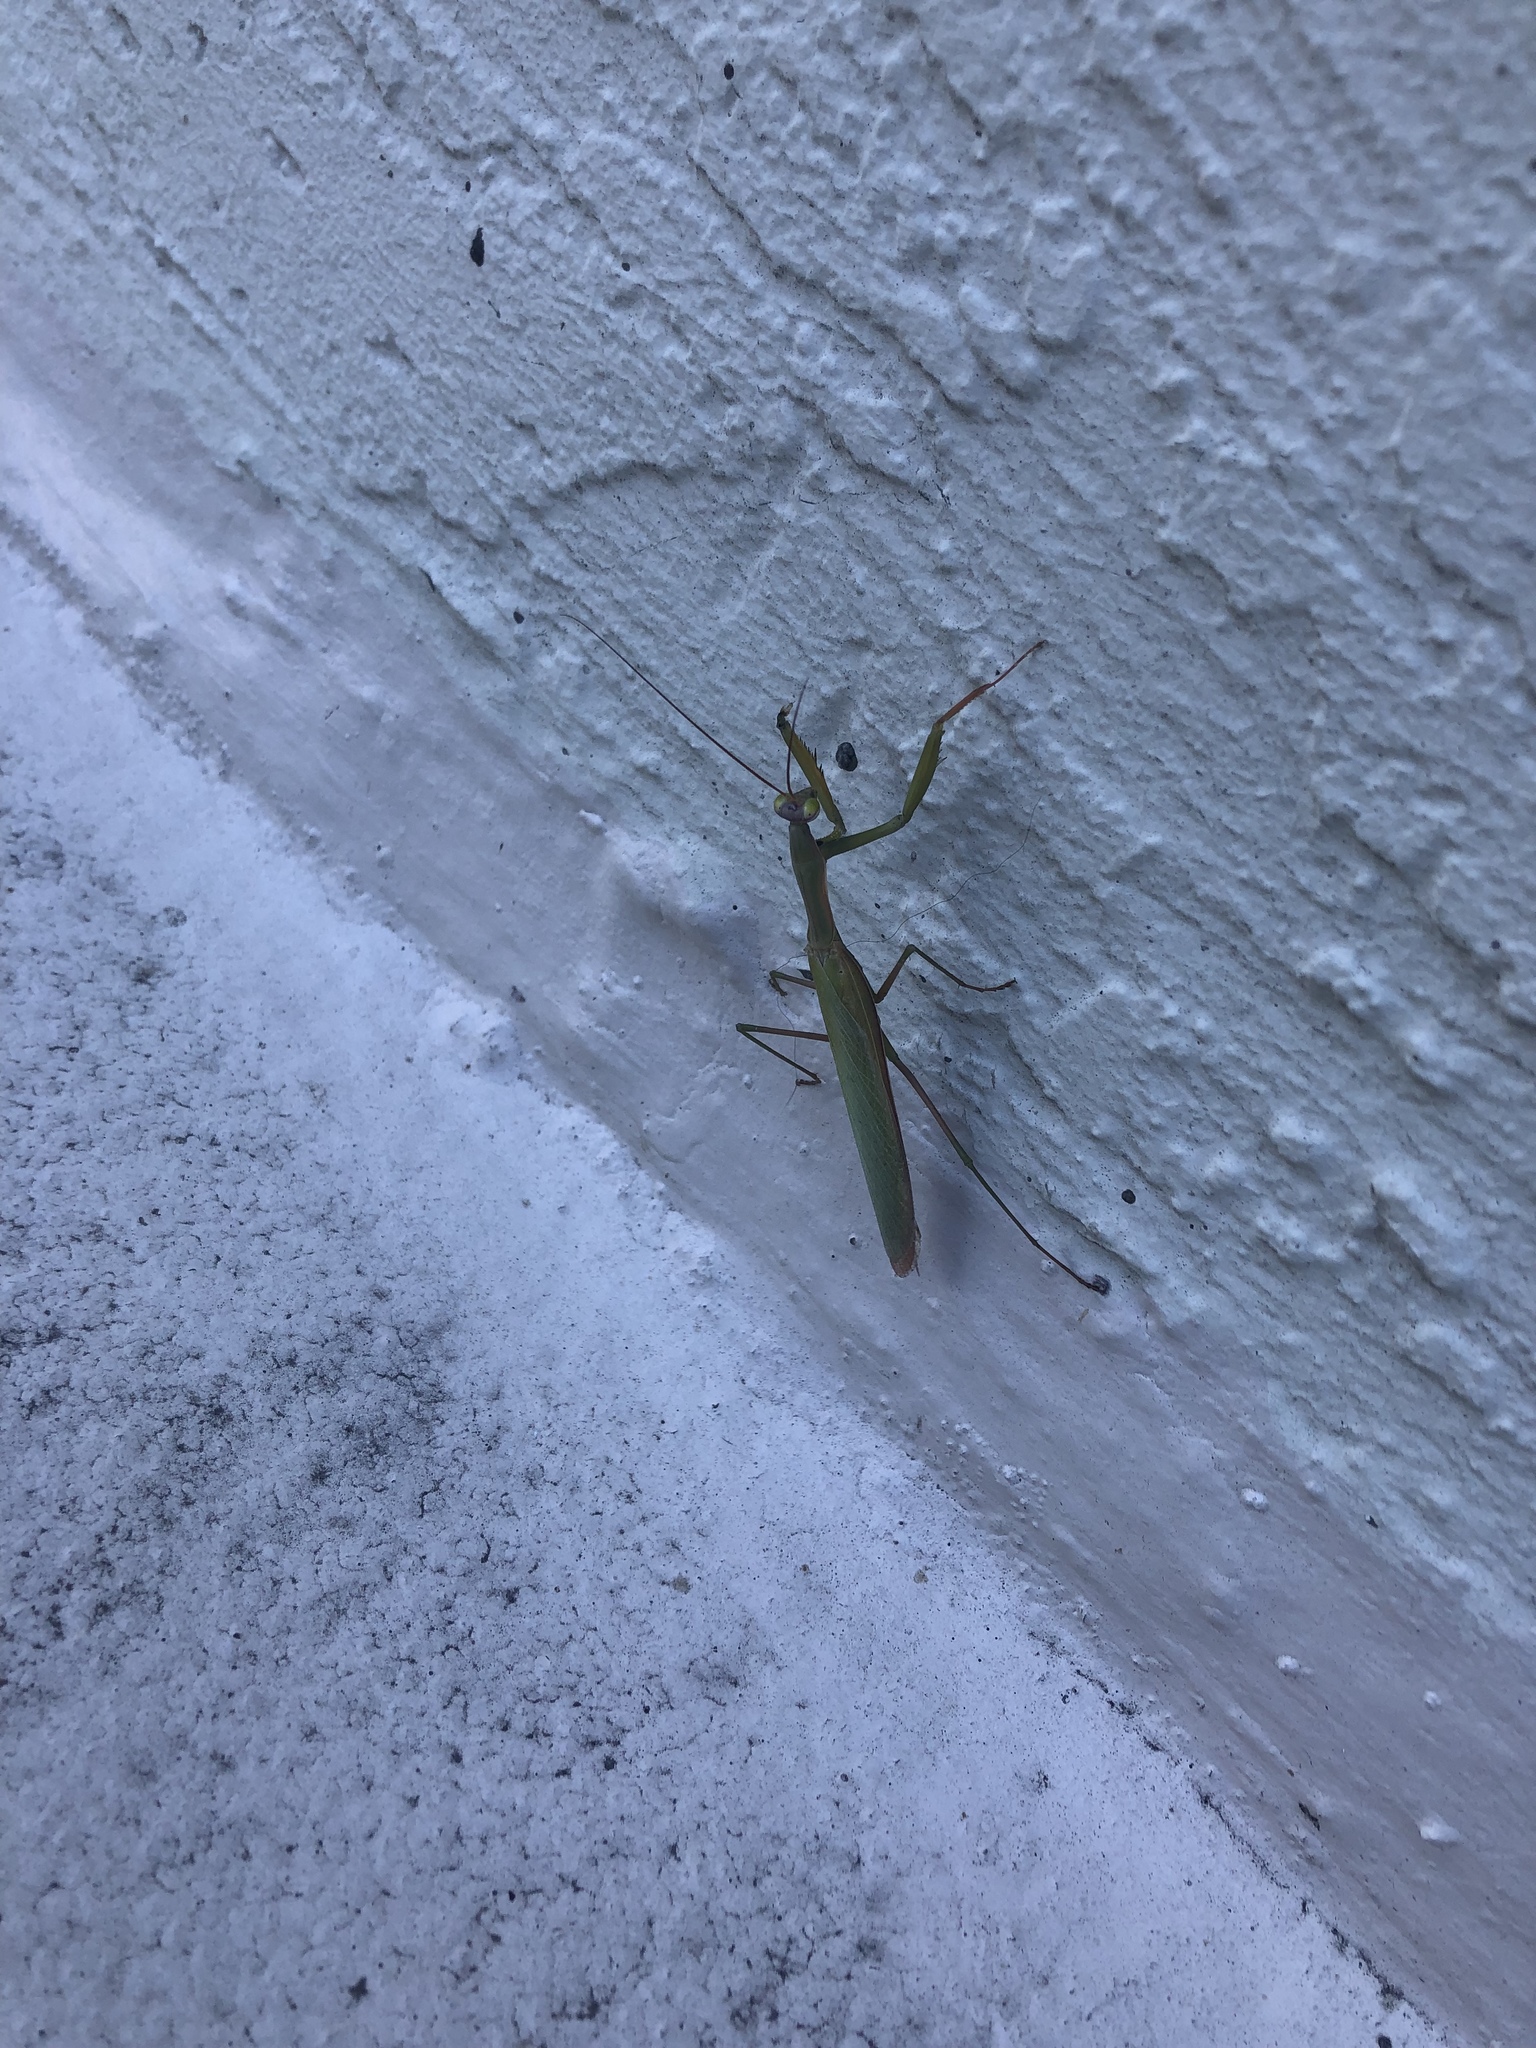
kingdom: Animalia
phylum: Arthropoda
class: Insecta
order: Mantodea
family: Mantidae
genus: Mantis
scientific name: Mantis religiosa
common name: Praying mantis
